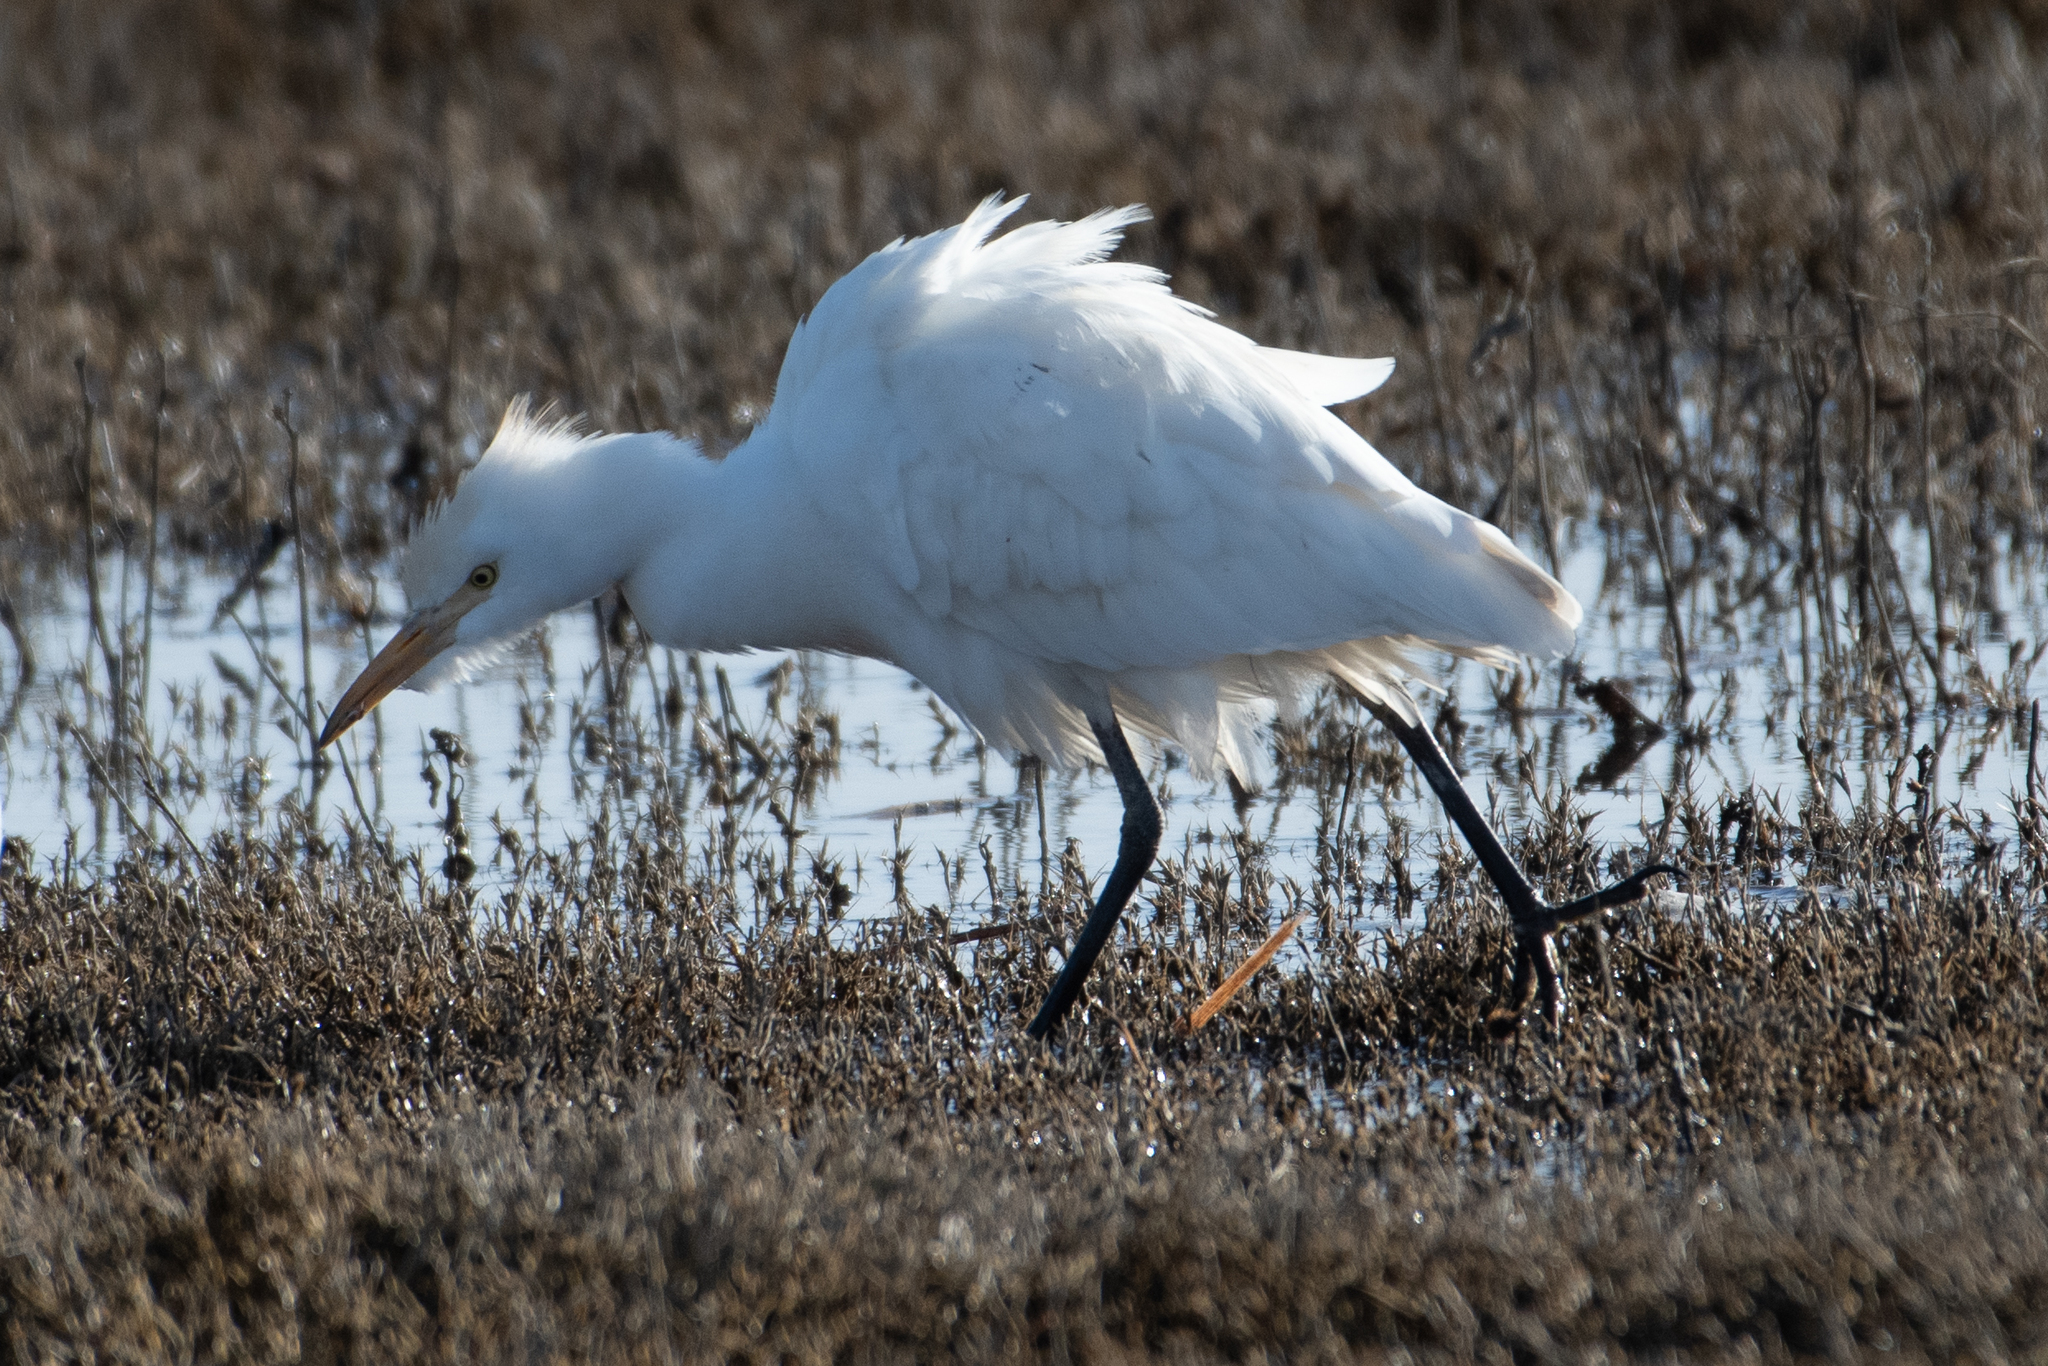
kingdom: Animalia
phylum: Chordata
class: Aves
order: Pelecaniformes
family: Ardeidae
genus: Bubulcus
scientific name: Bubulcus ibis
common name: Cattle egret
